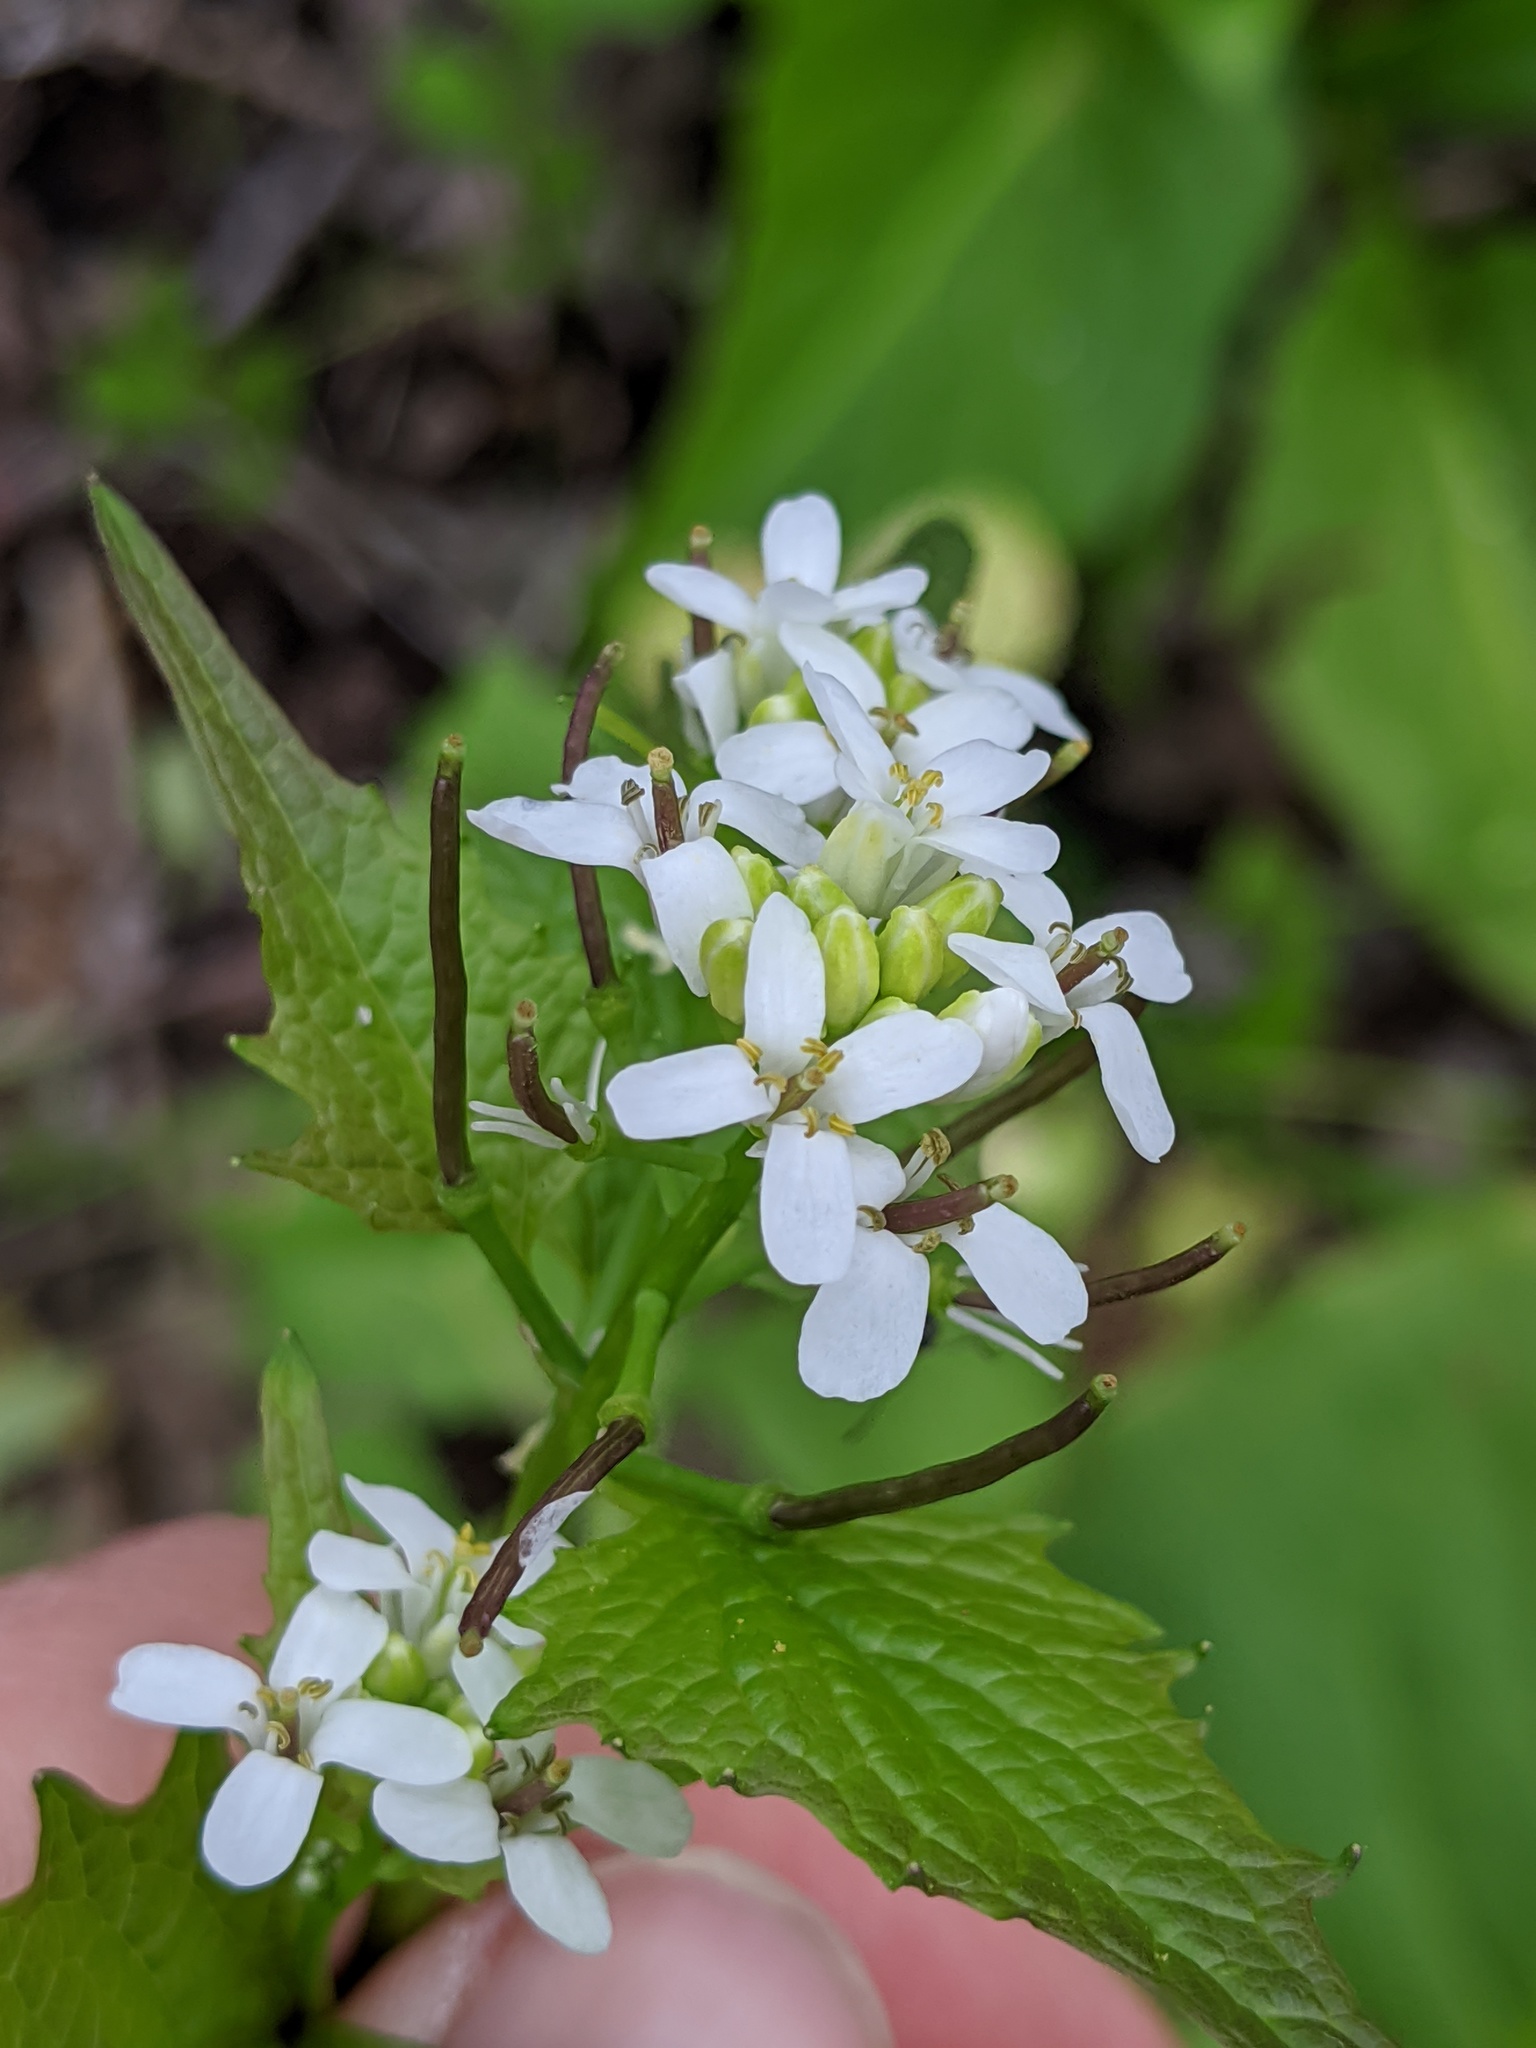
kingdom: Plantae
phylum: Tracheophyta
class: Magnoliopsida
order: Brassicales
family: Brassicaceae
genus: Alliaria
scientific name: Alliaria petiolata
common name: Garlic mustard
